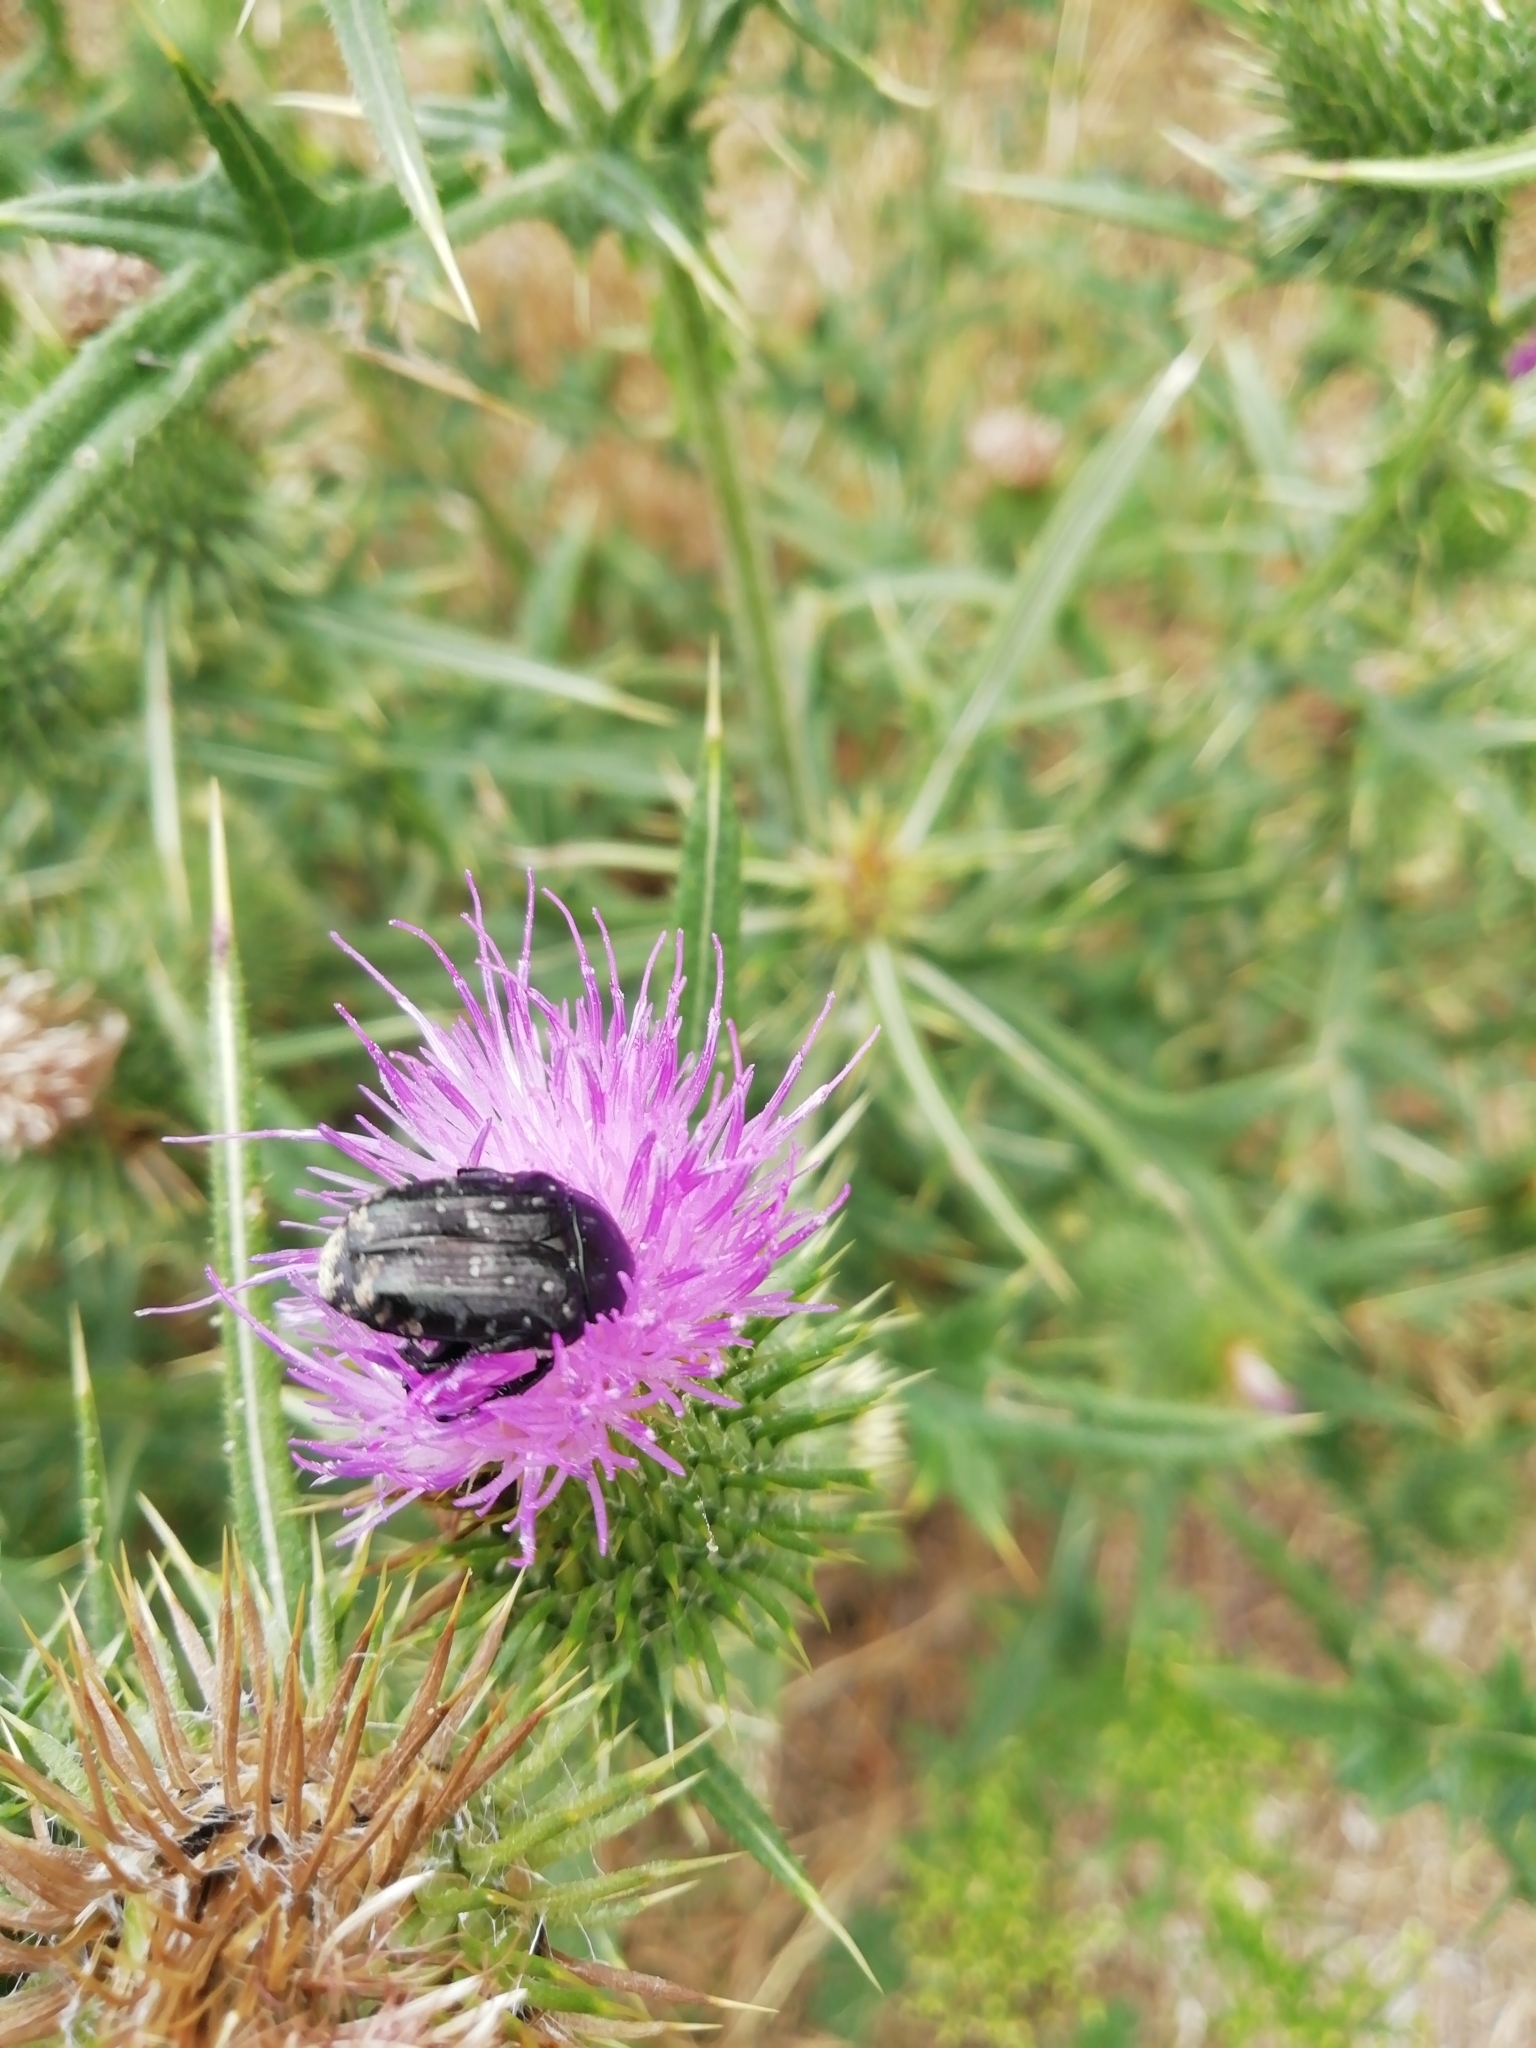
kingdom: Animalia
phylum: Arthropoda
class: Insecta
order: Coleoptera
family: Scarabaeidae
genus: Oxythyrea
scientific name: Oxythyrea funesta
